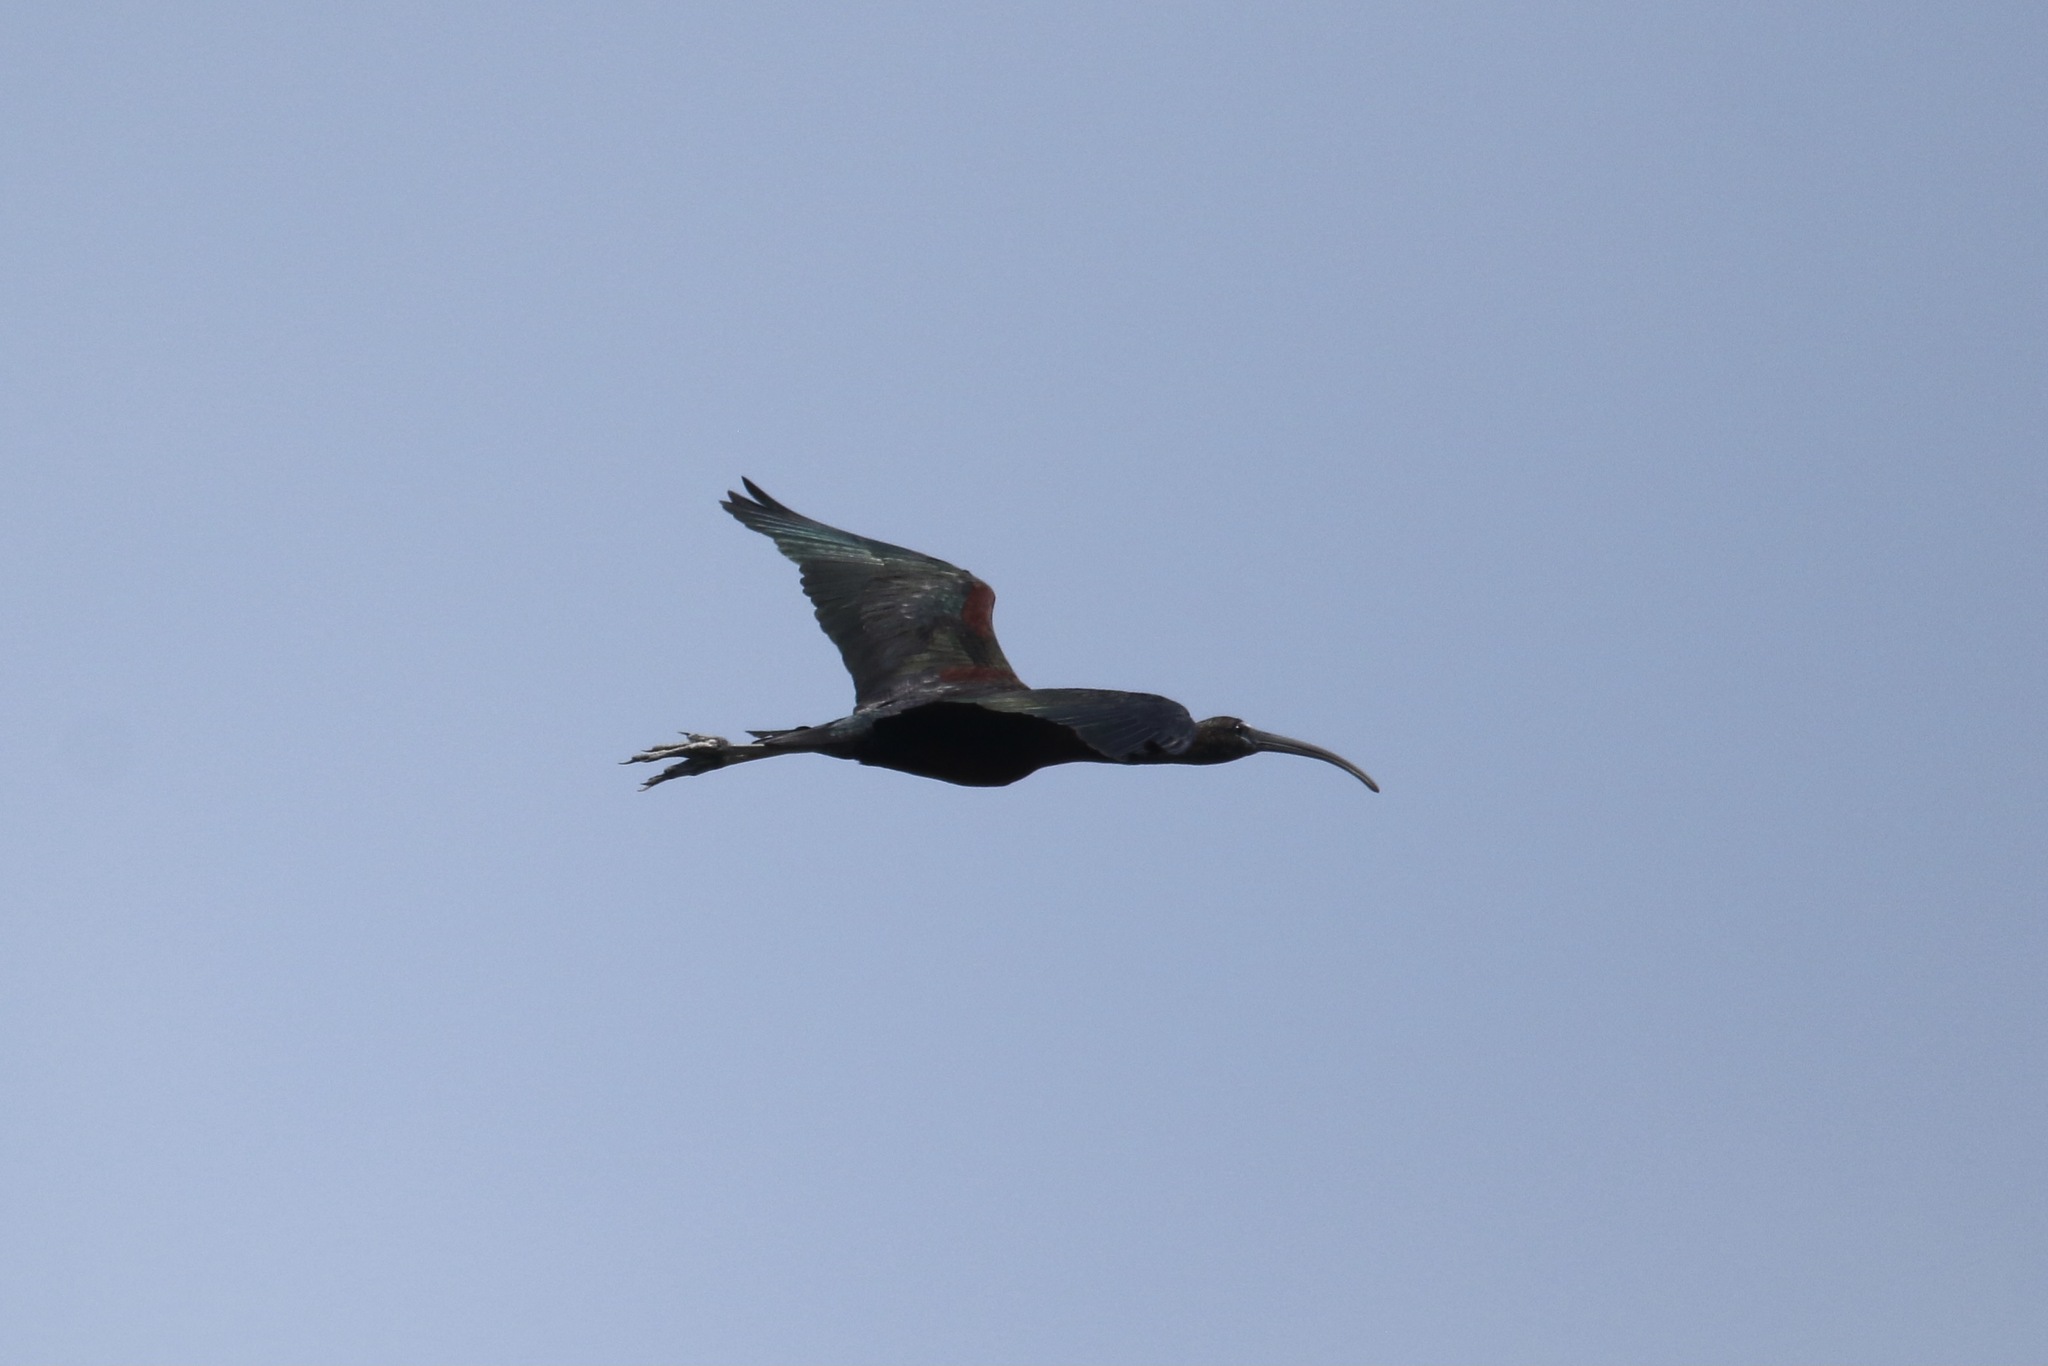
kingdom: Animalia
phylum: Chordata
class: Aves
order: Pelecaniformes
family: Threskiornithidae
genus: Plegadis
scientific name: Plegadis falcinellus
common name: Glossy ibis
